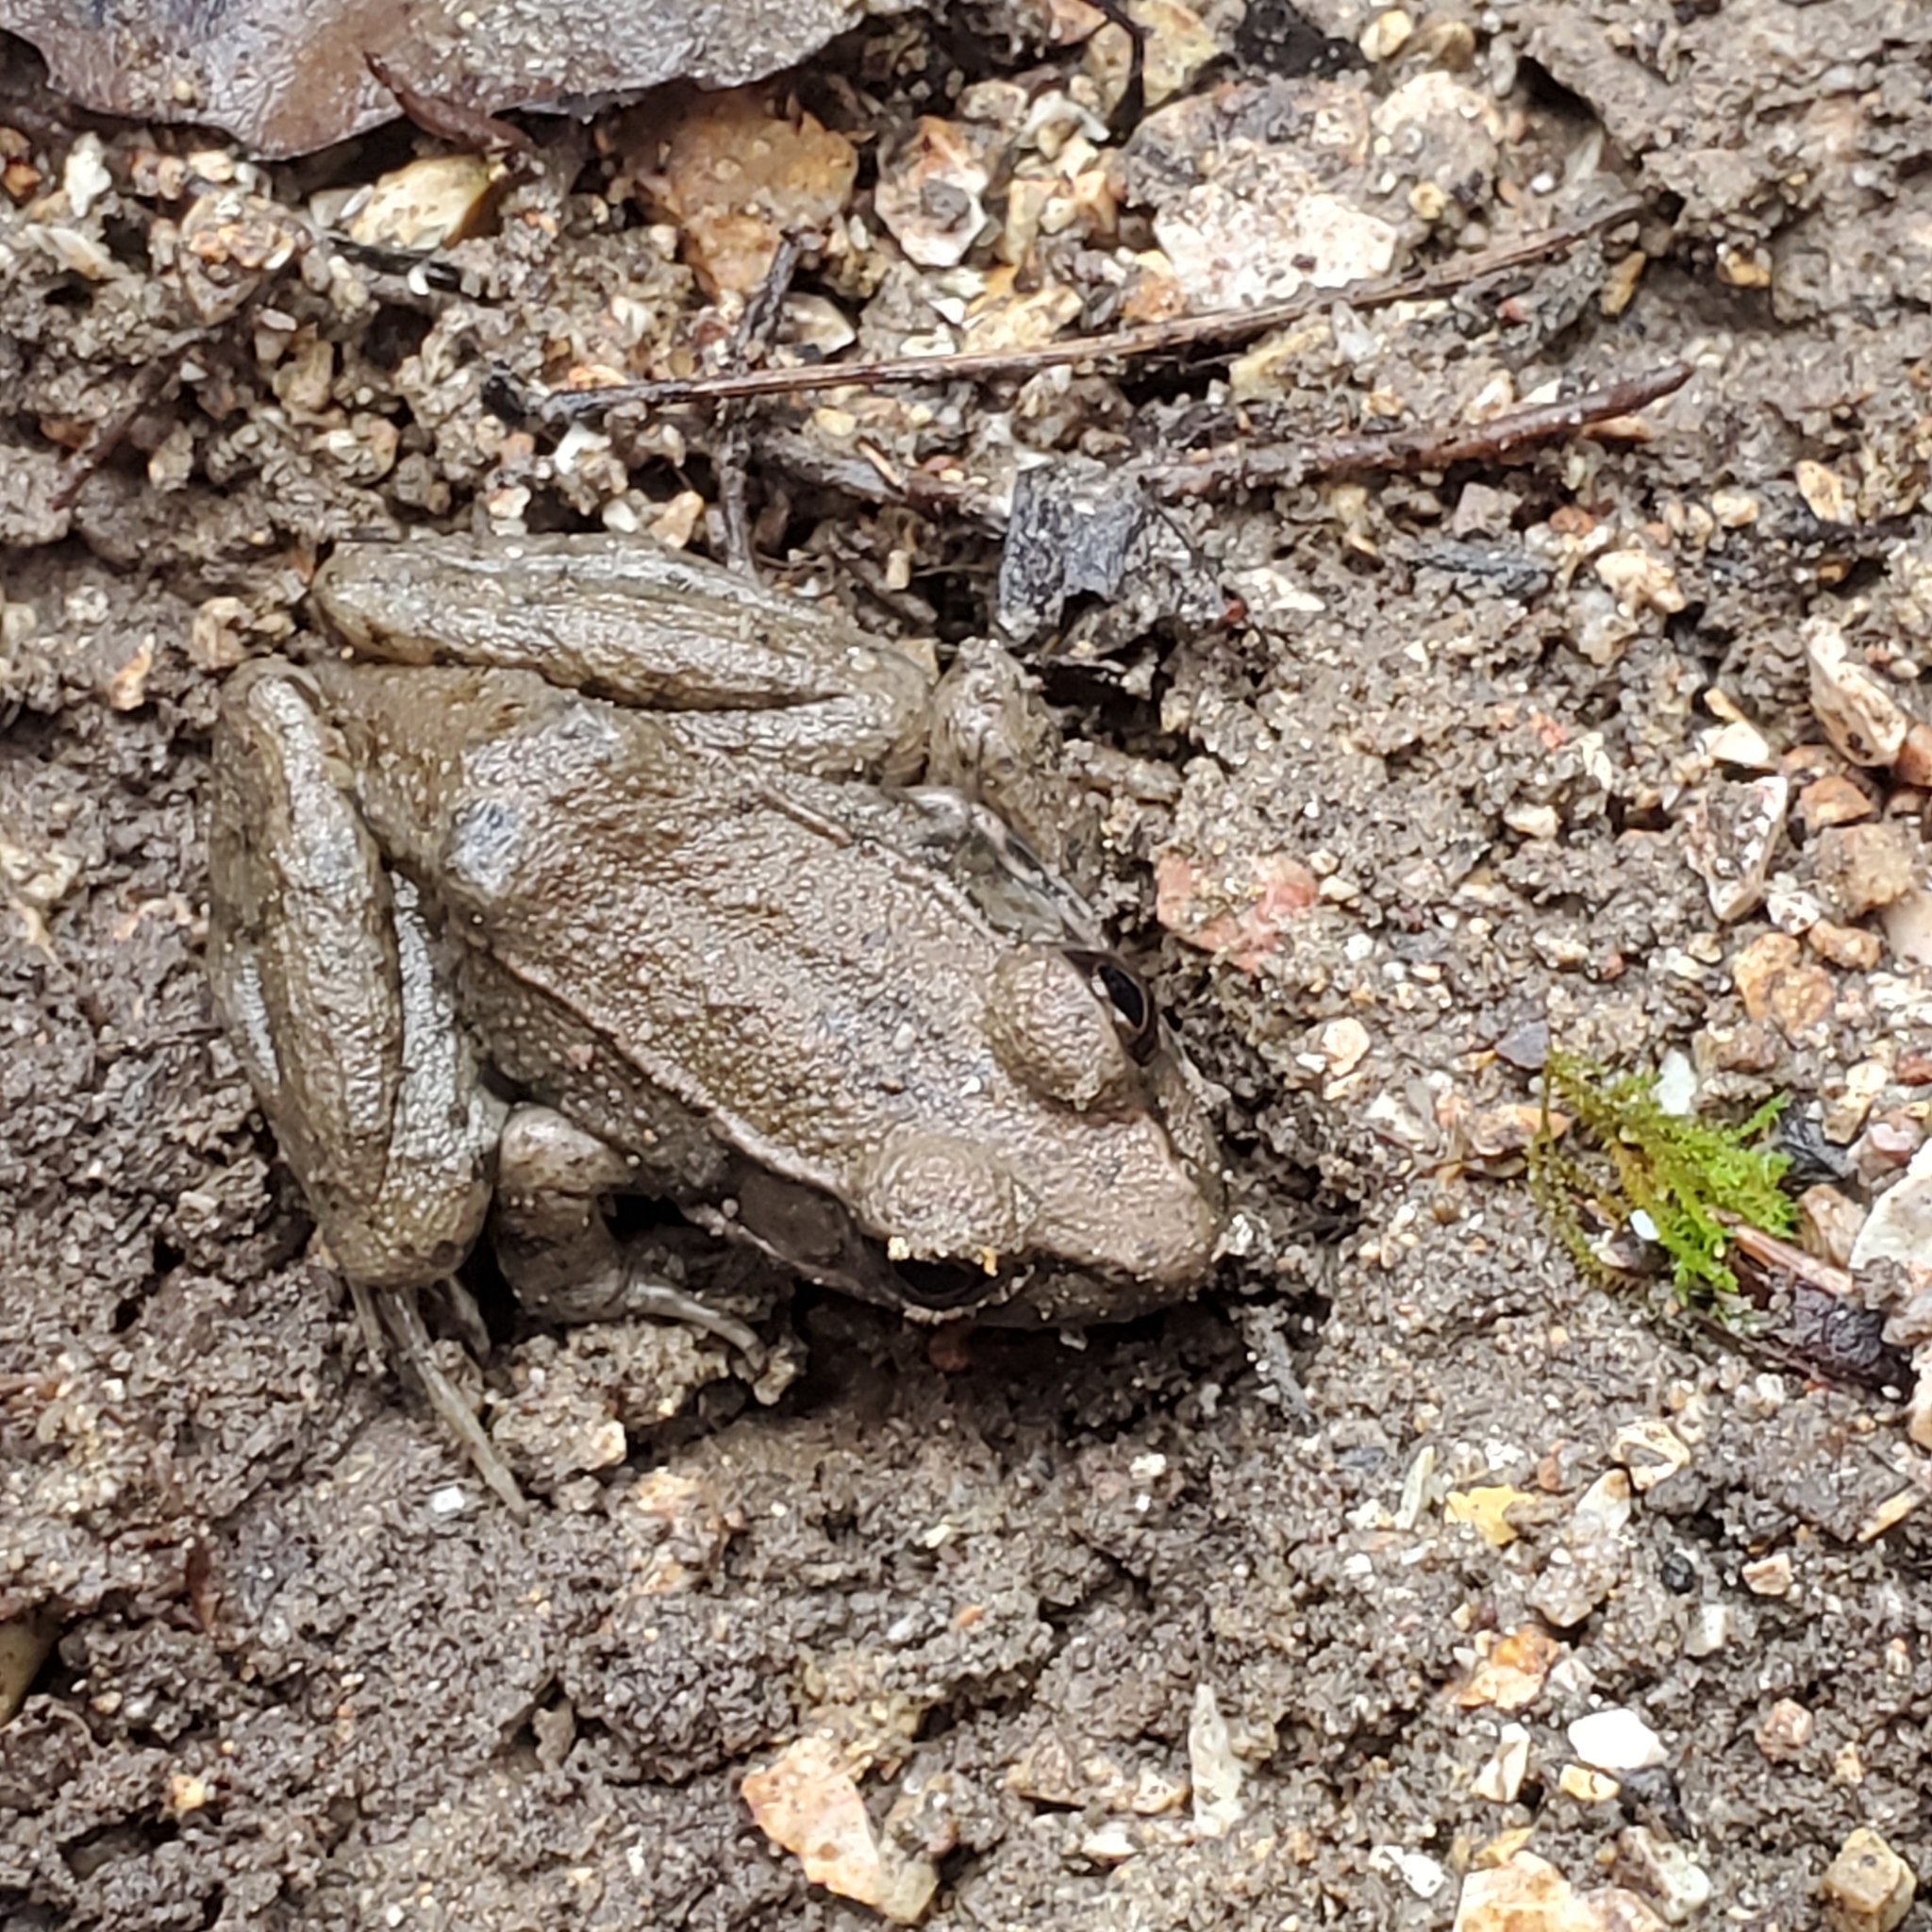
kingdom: Animalia
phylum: Chordata
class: Amphibia
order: Anura
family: Ranidae
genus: Lithobates
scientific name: Lithobates clamitans
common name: Green frog
